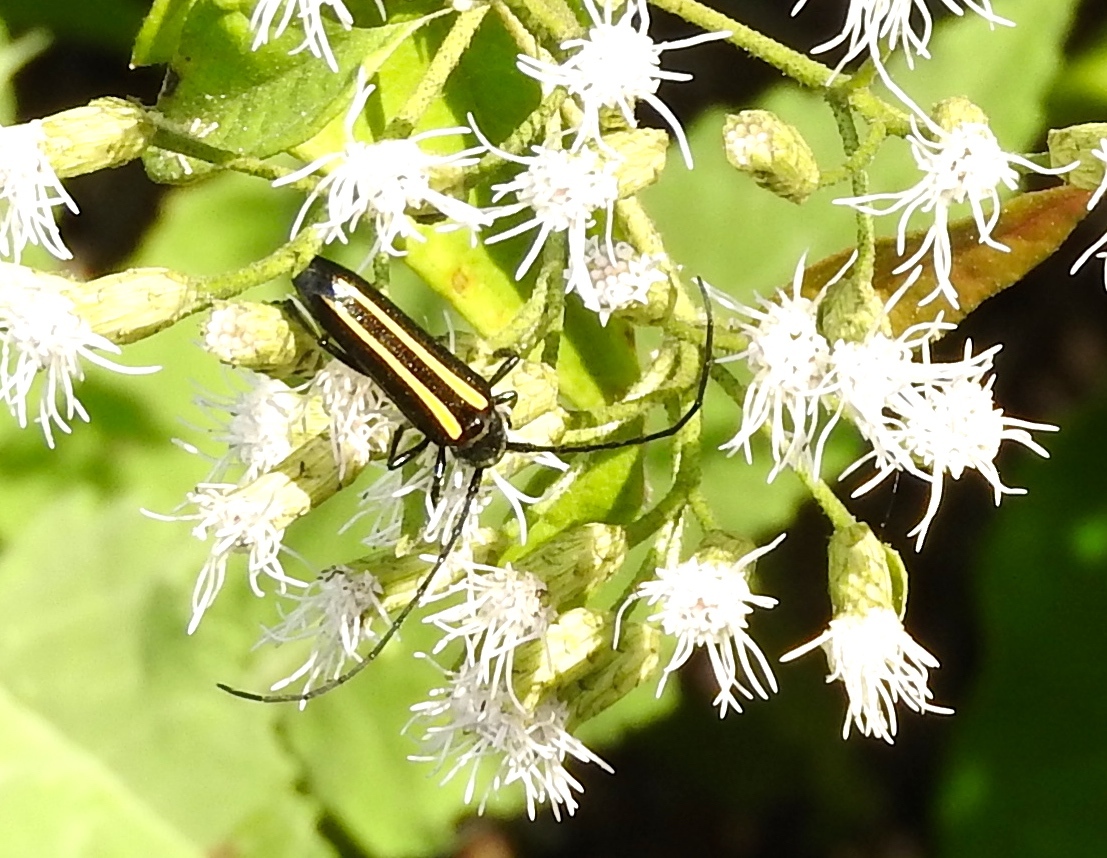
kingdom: Animalia
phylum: Arthropoda
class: Insecta
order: Coleoptera
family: Cerambycidae
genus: Lophalia
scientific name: Lophalia prolata
